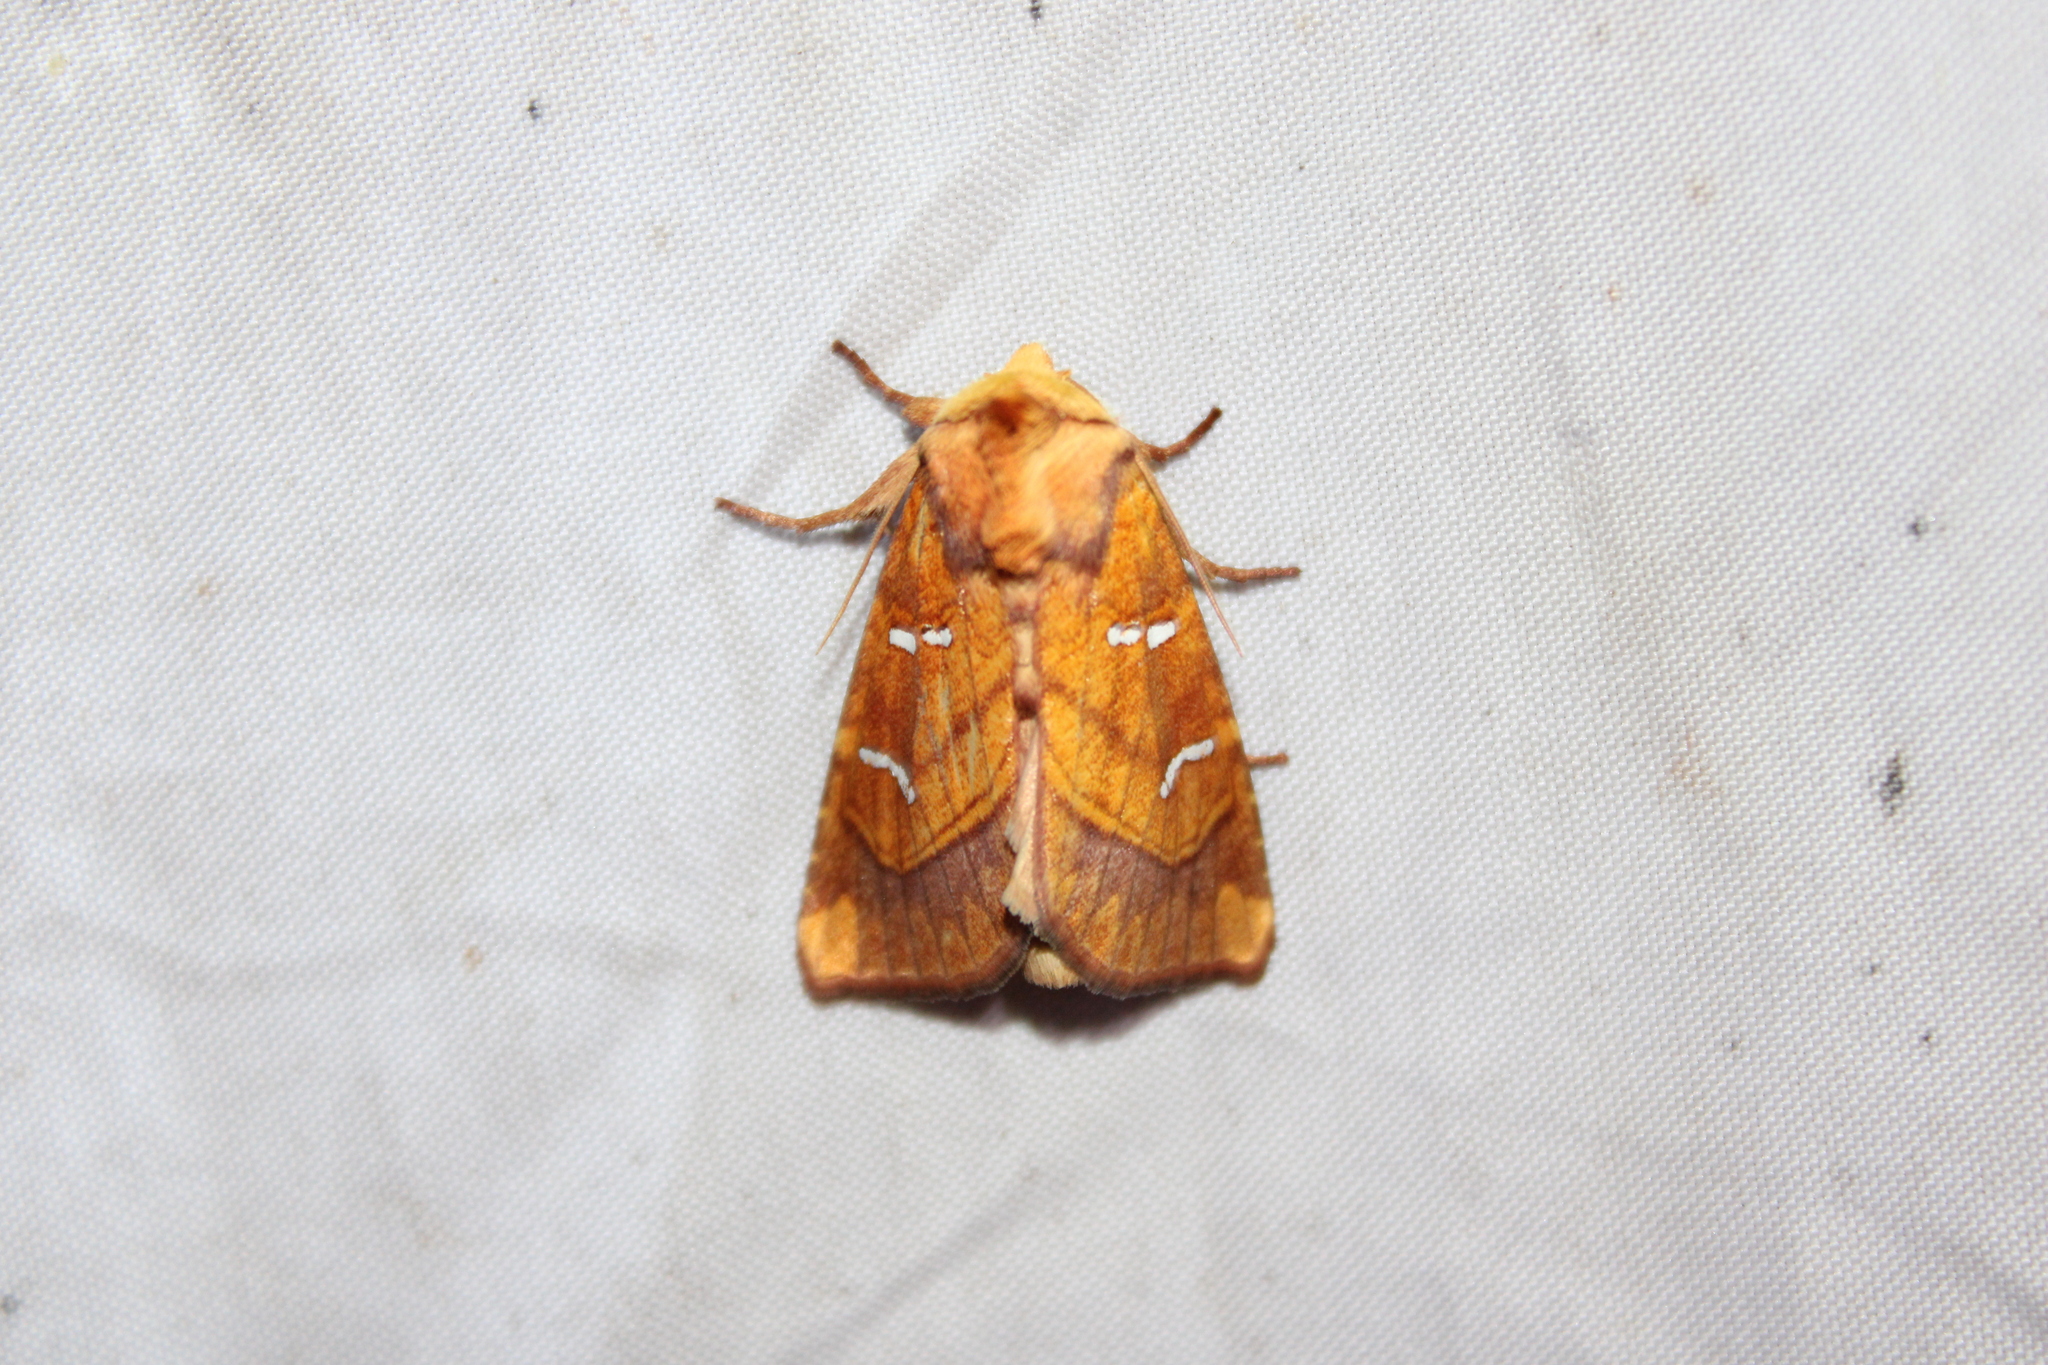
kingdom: Animalia
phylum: Arthropoda
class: Insecta
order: Lepidoptera
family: Noctuidae
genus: Papaipema
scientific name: Papaipema speciosissima
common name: Osmunda borer moth
